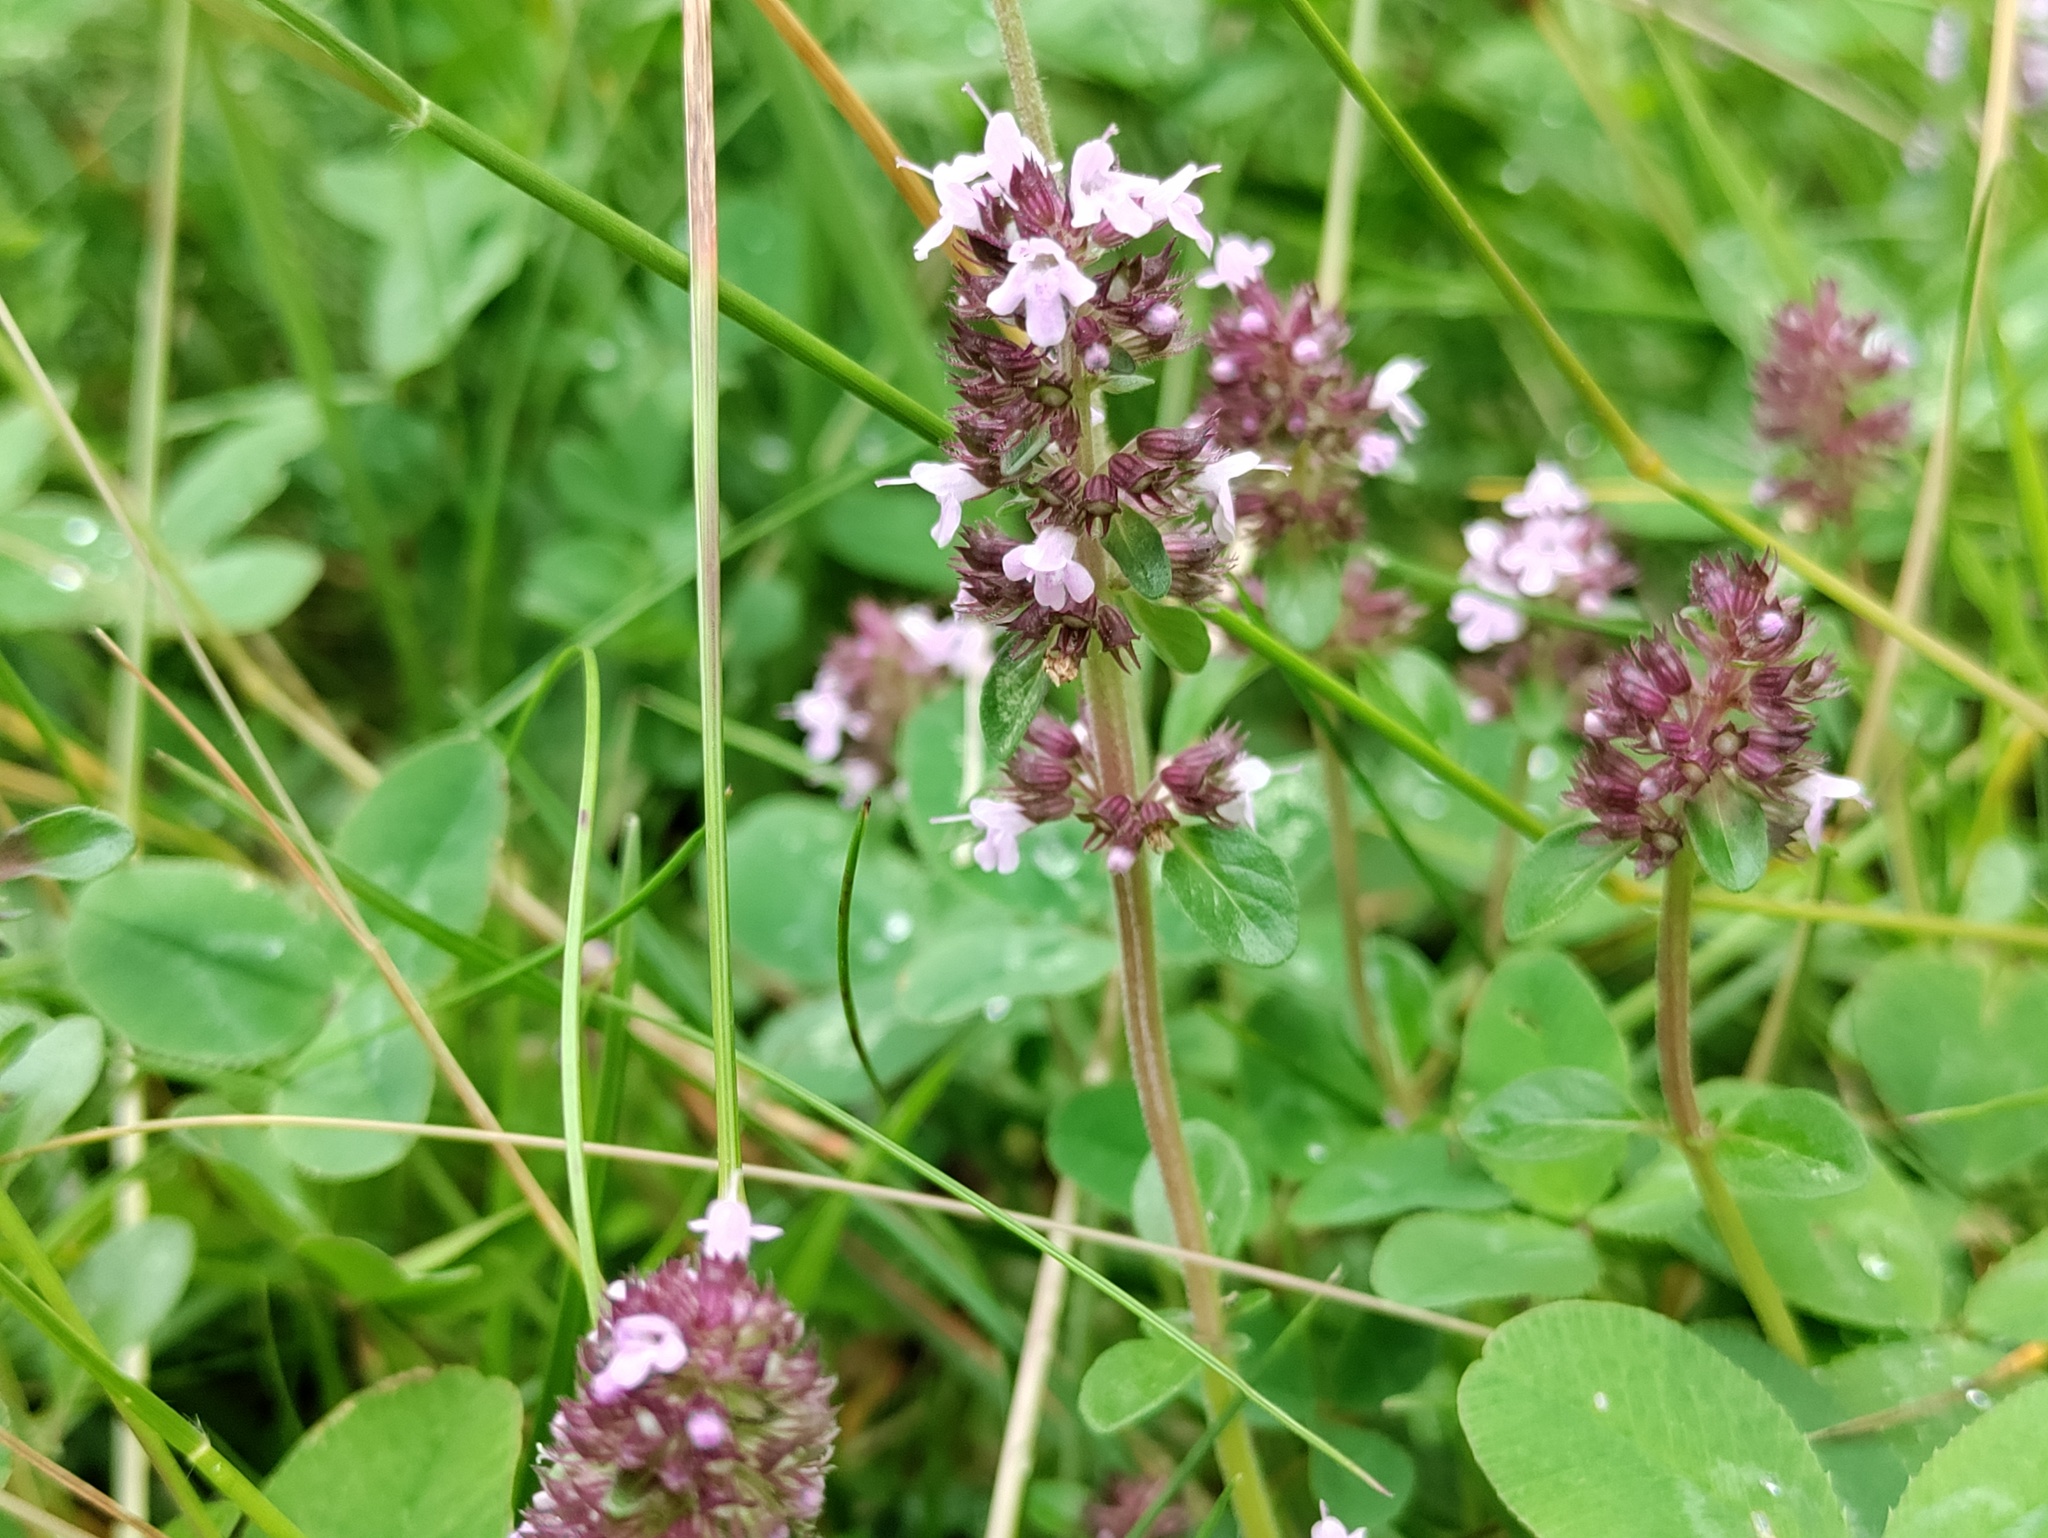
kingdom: Plantae
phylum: Tracheophyta
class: Magnoliopsida
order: Lamiales
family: Lamiaceae
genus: Thymus
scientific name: Thymus pulegioides
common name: Large thyme
